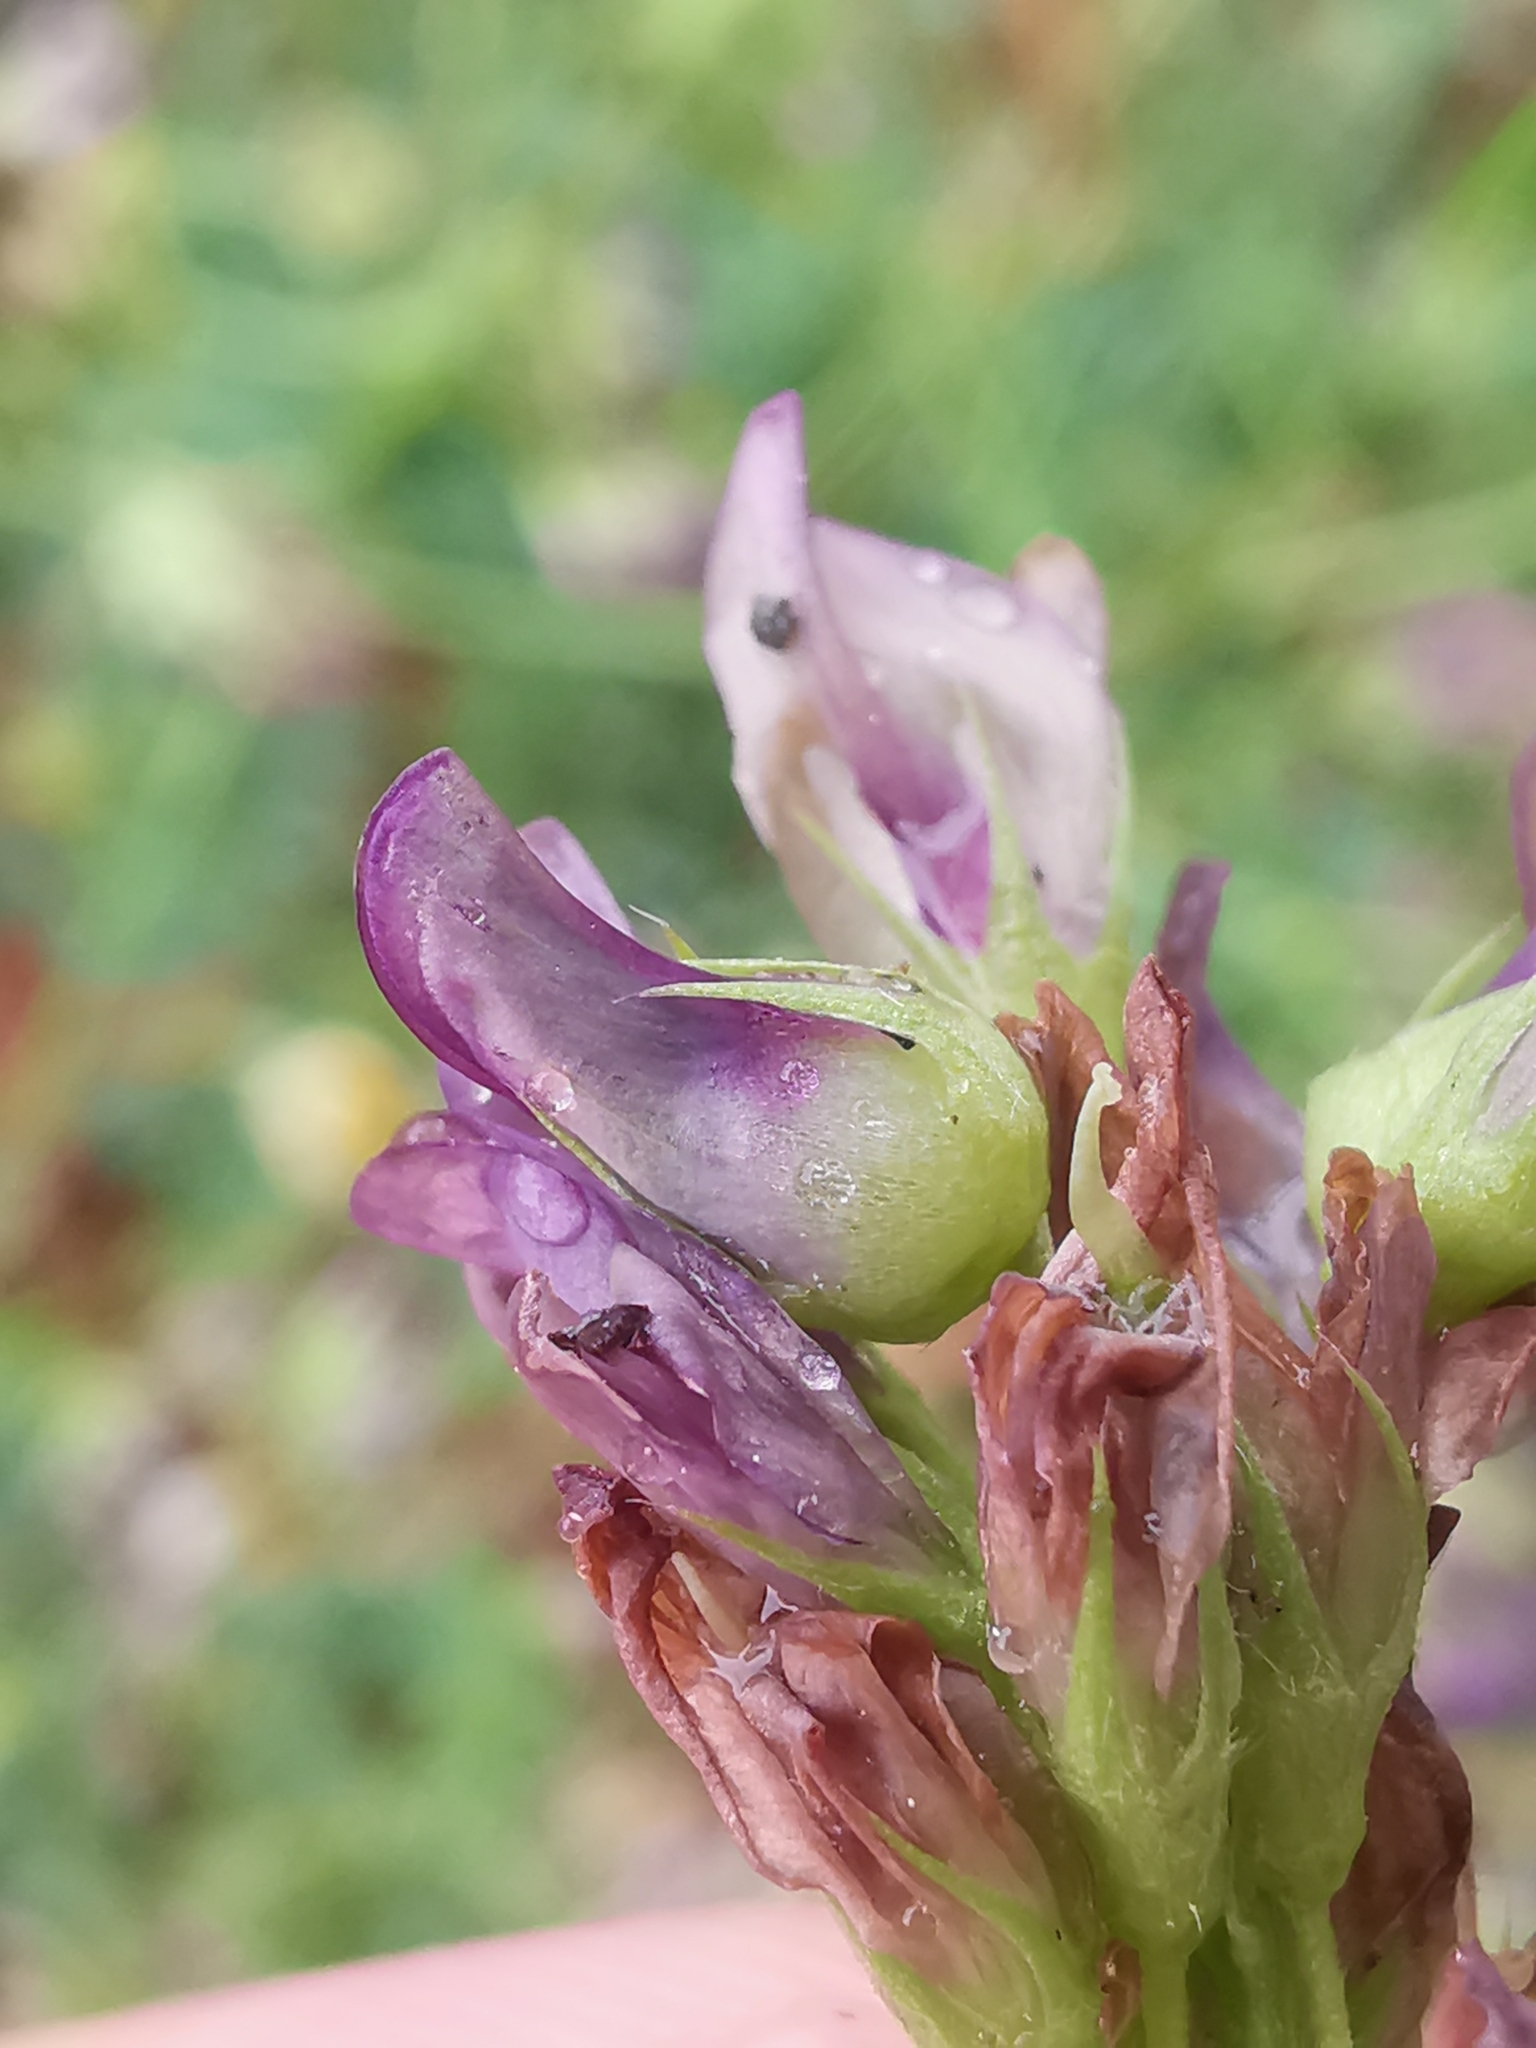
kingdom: Animalia
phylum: Arthropoda
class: Insecta
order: Diptera
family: Cecidomyiidae
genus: Contarinia
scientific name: Contarinia medicaginis
